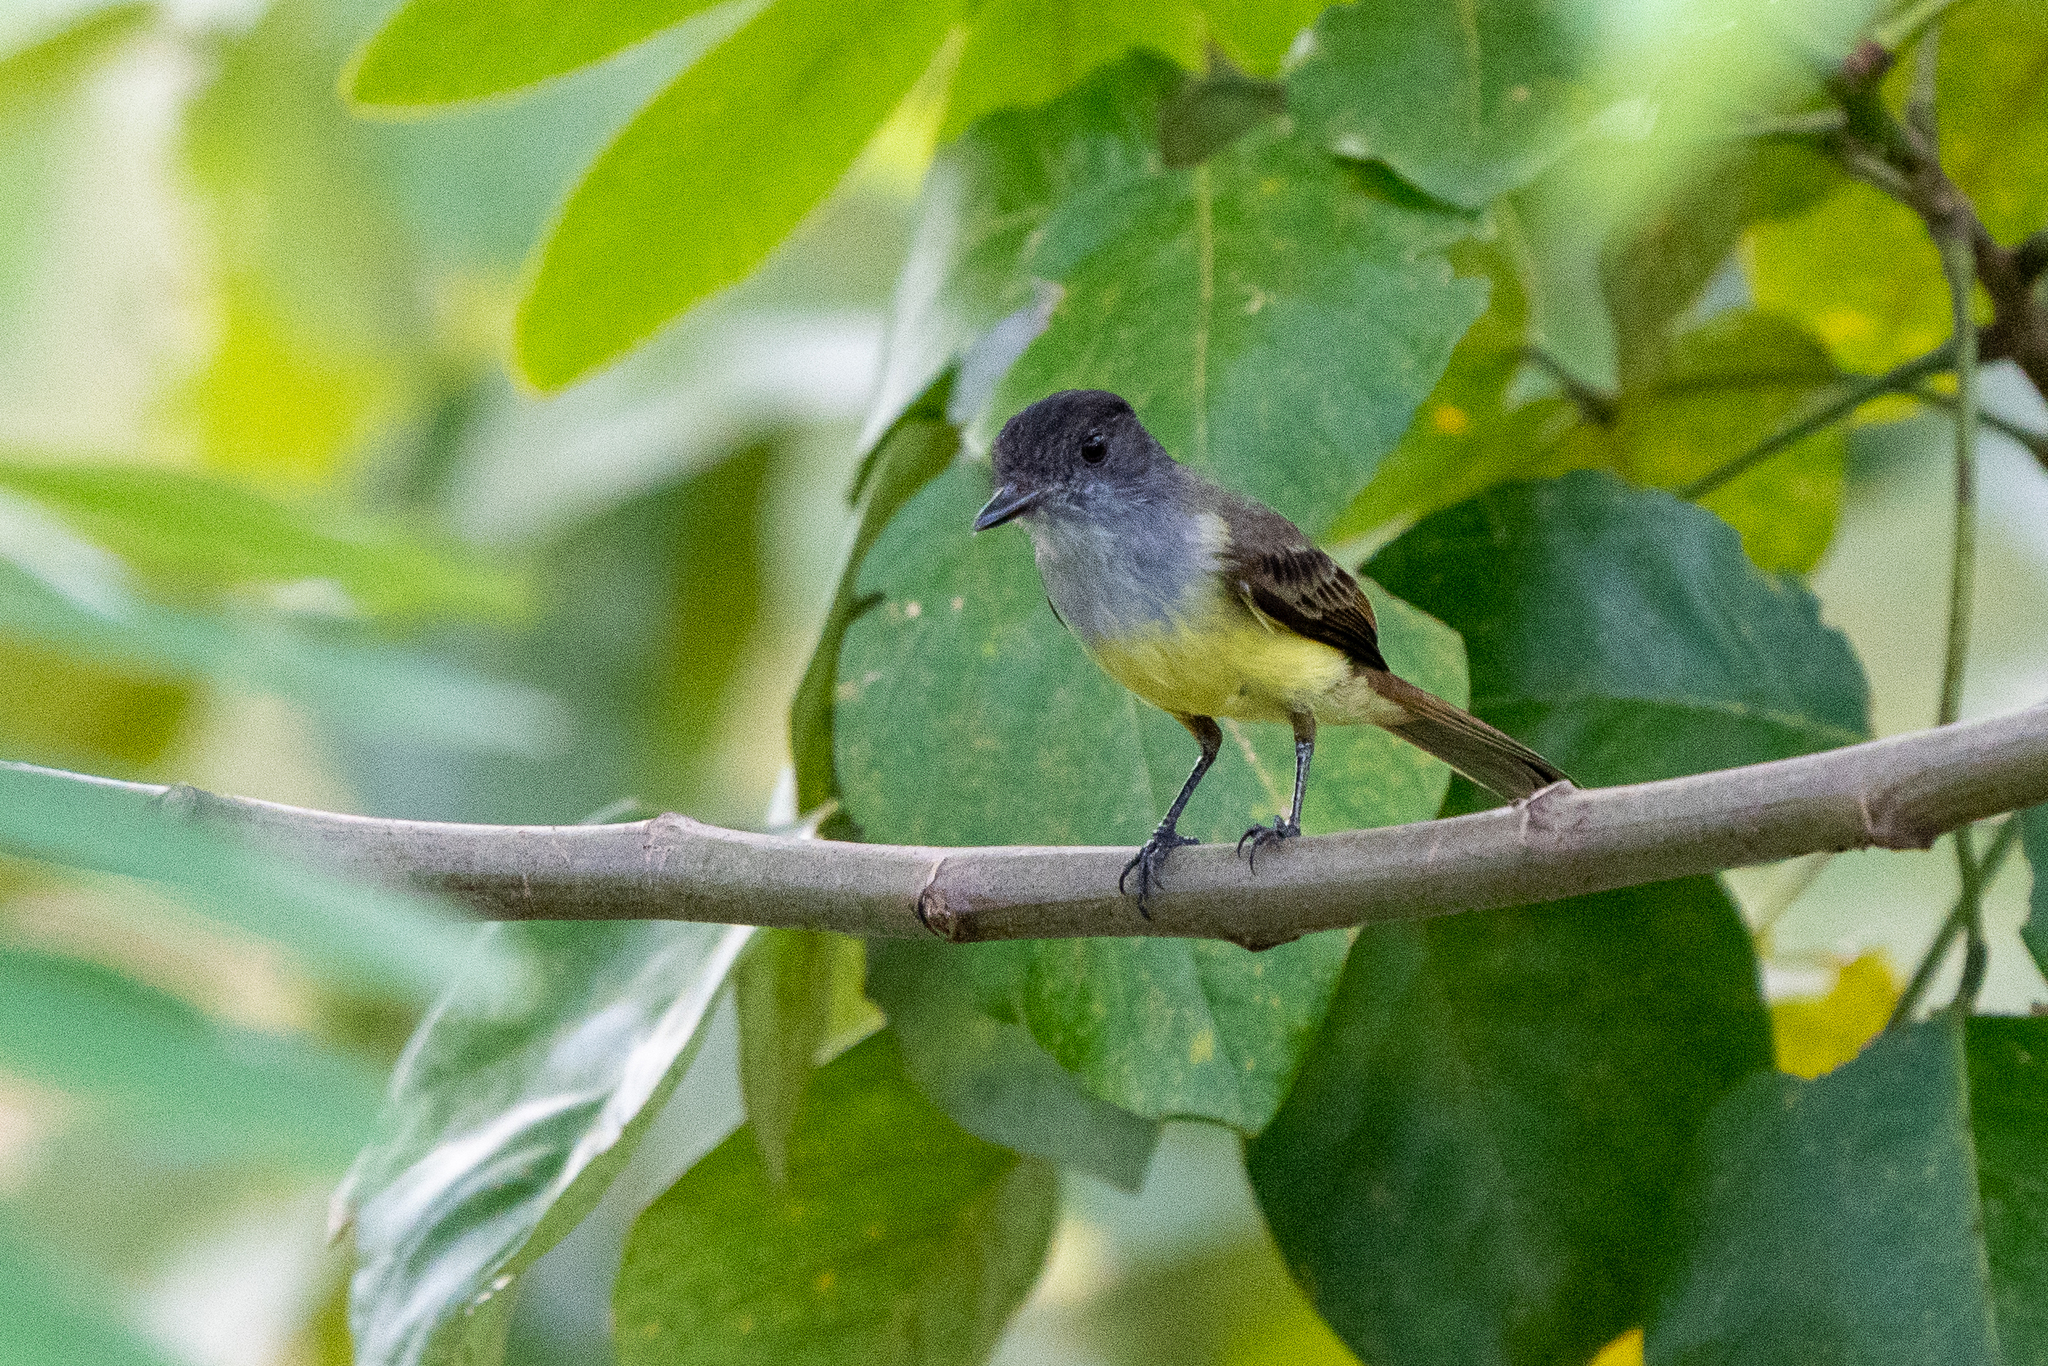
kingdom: Animalia
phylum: Chordata
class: Aves
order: Passeriformes
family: Tyrannidae
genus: Myiarchus
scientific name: Myiarchus tuberculifer
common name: Dusky-capped flycatcher
